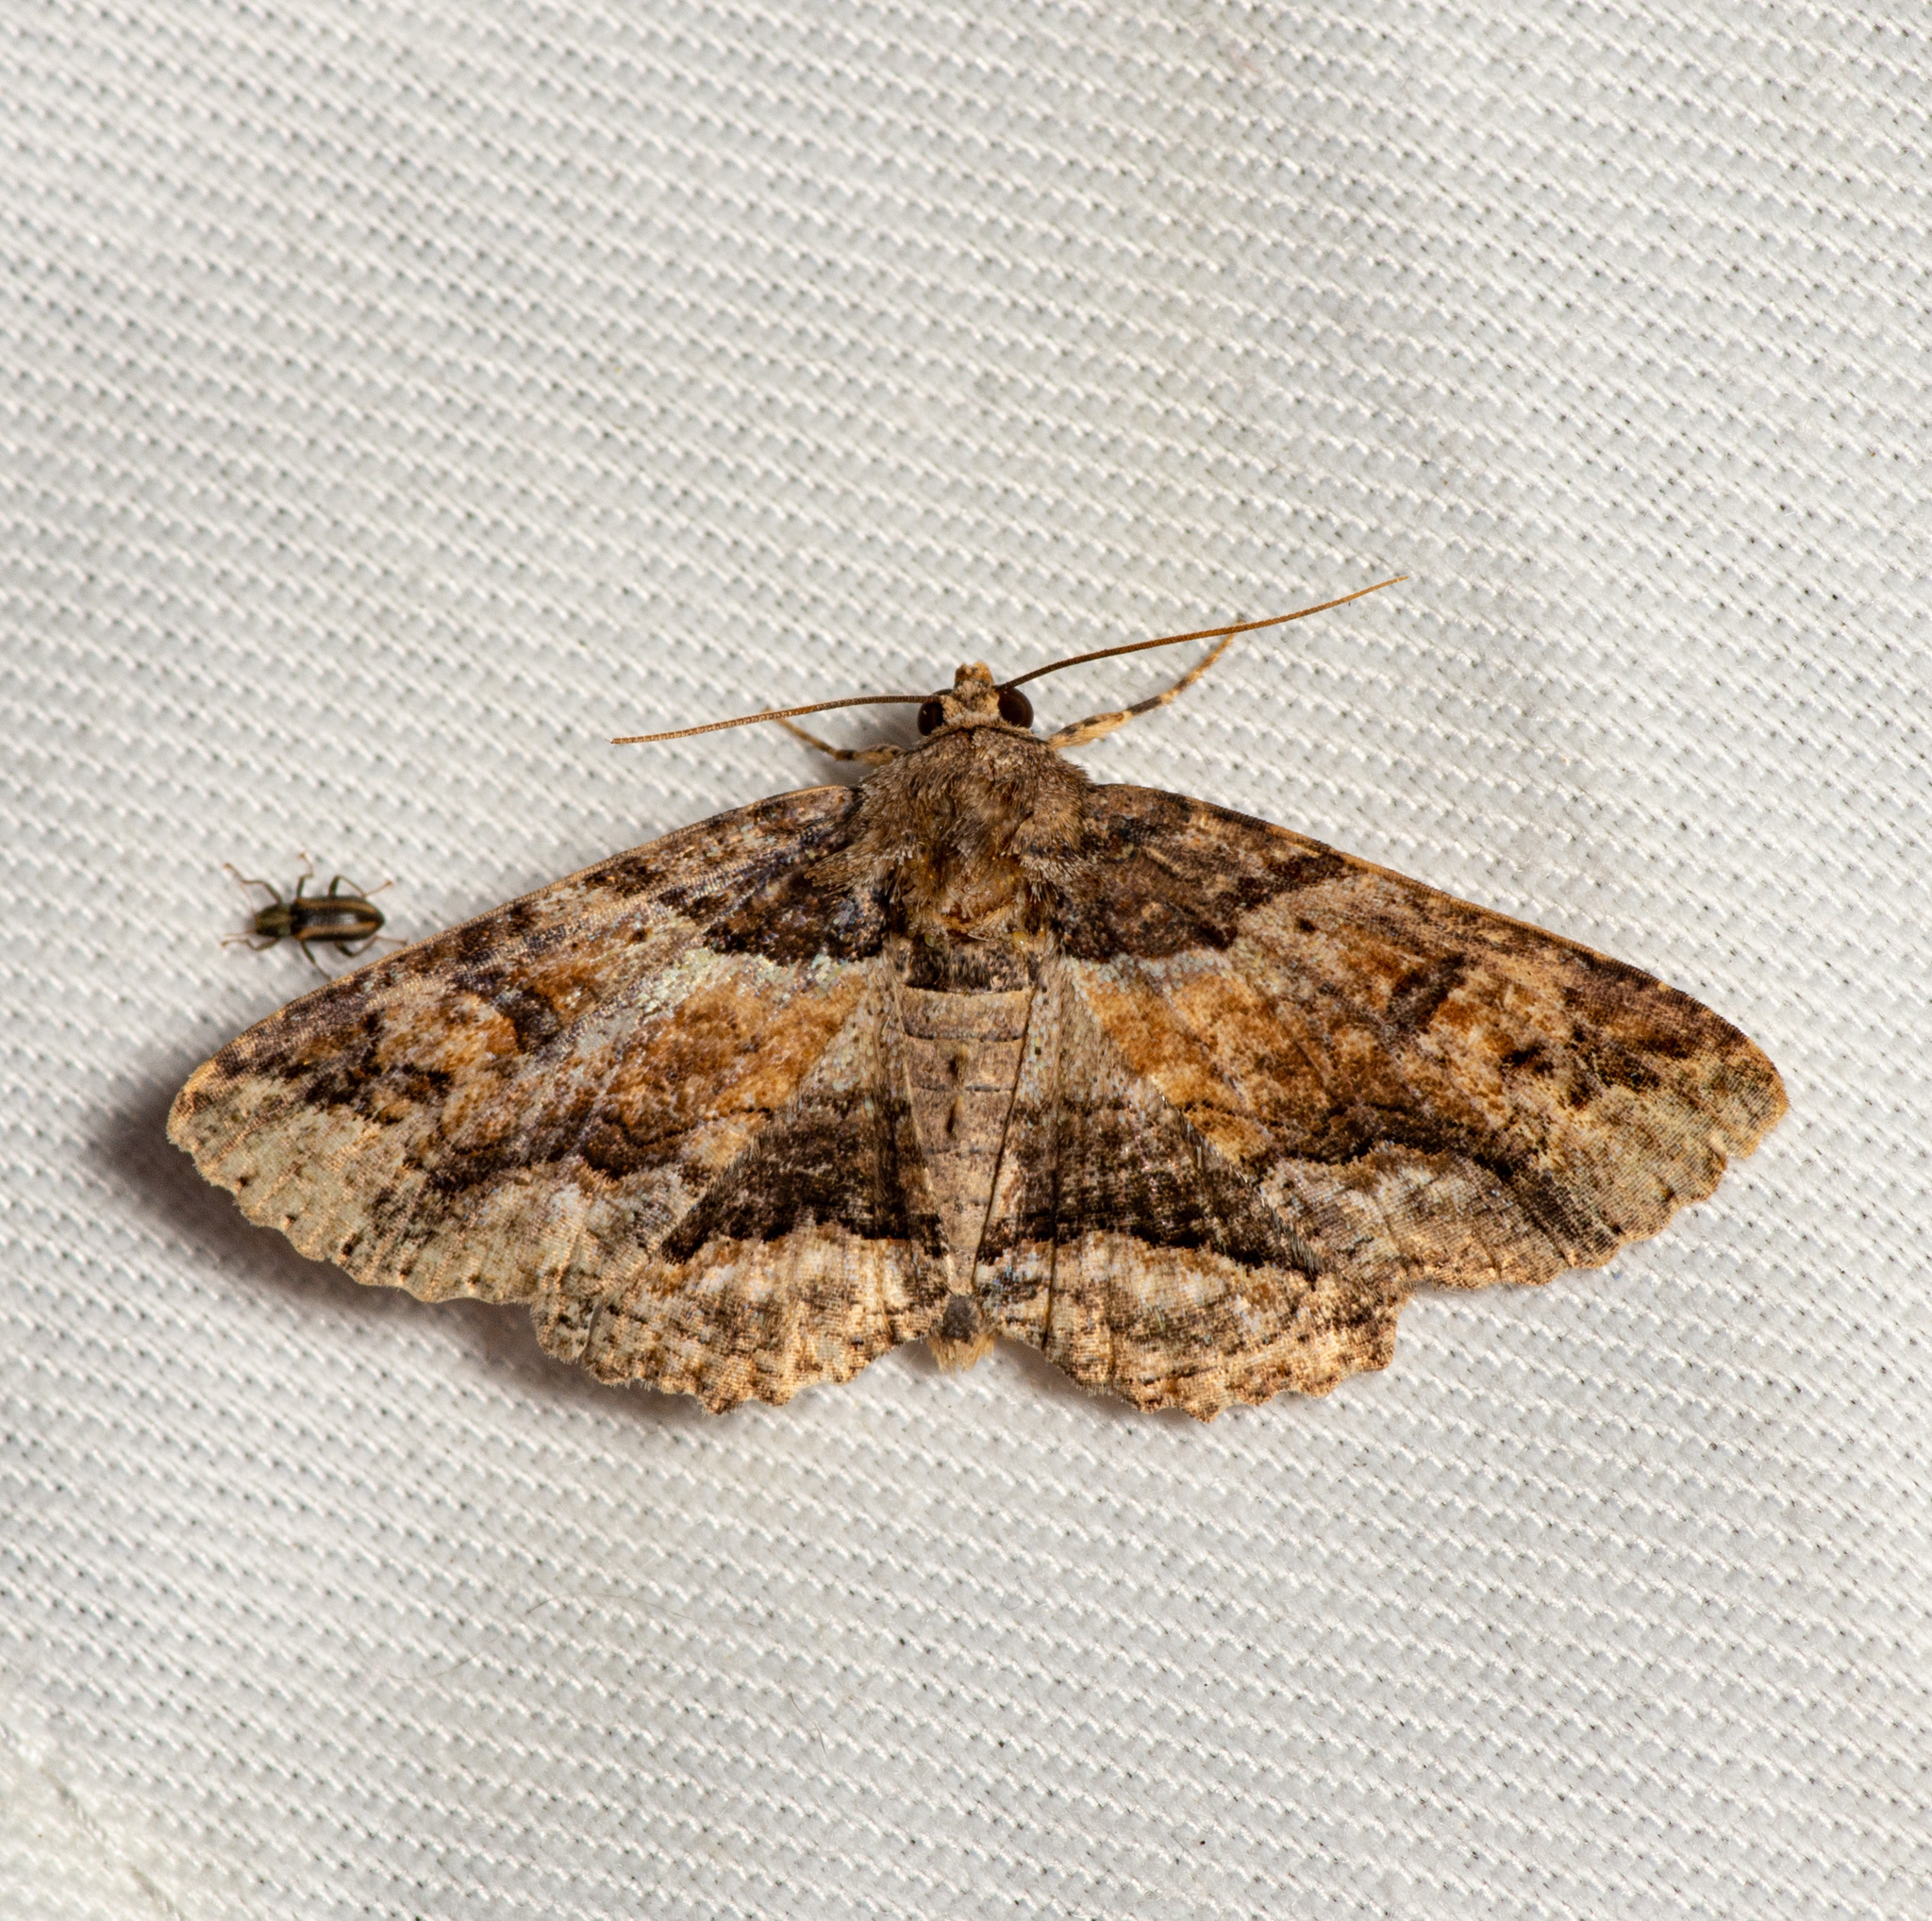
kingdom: Animalia
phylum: Arthropoda
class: Insecta
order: Lepidoptera
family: Erebidae
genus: Zale
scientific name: Zale galbanata
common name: Maple zale
